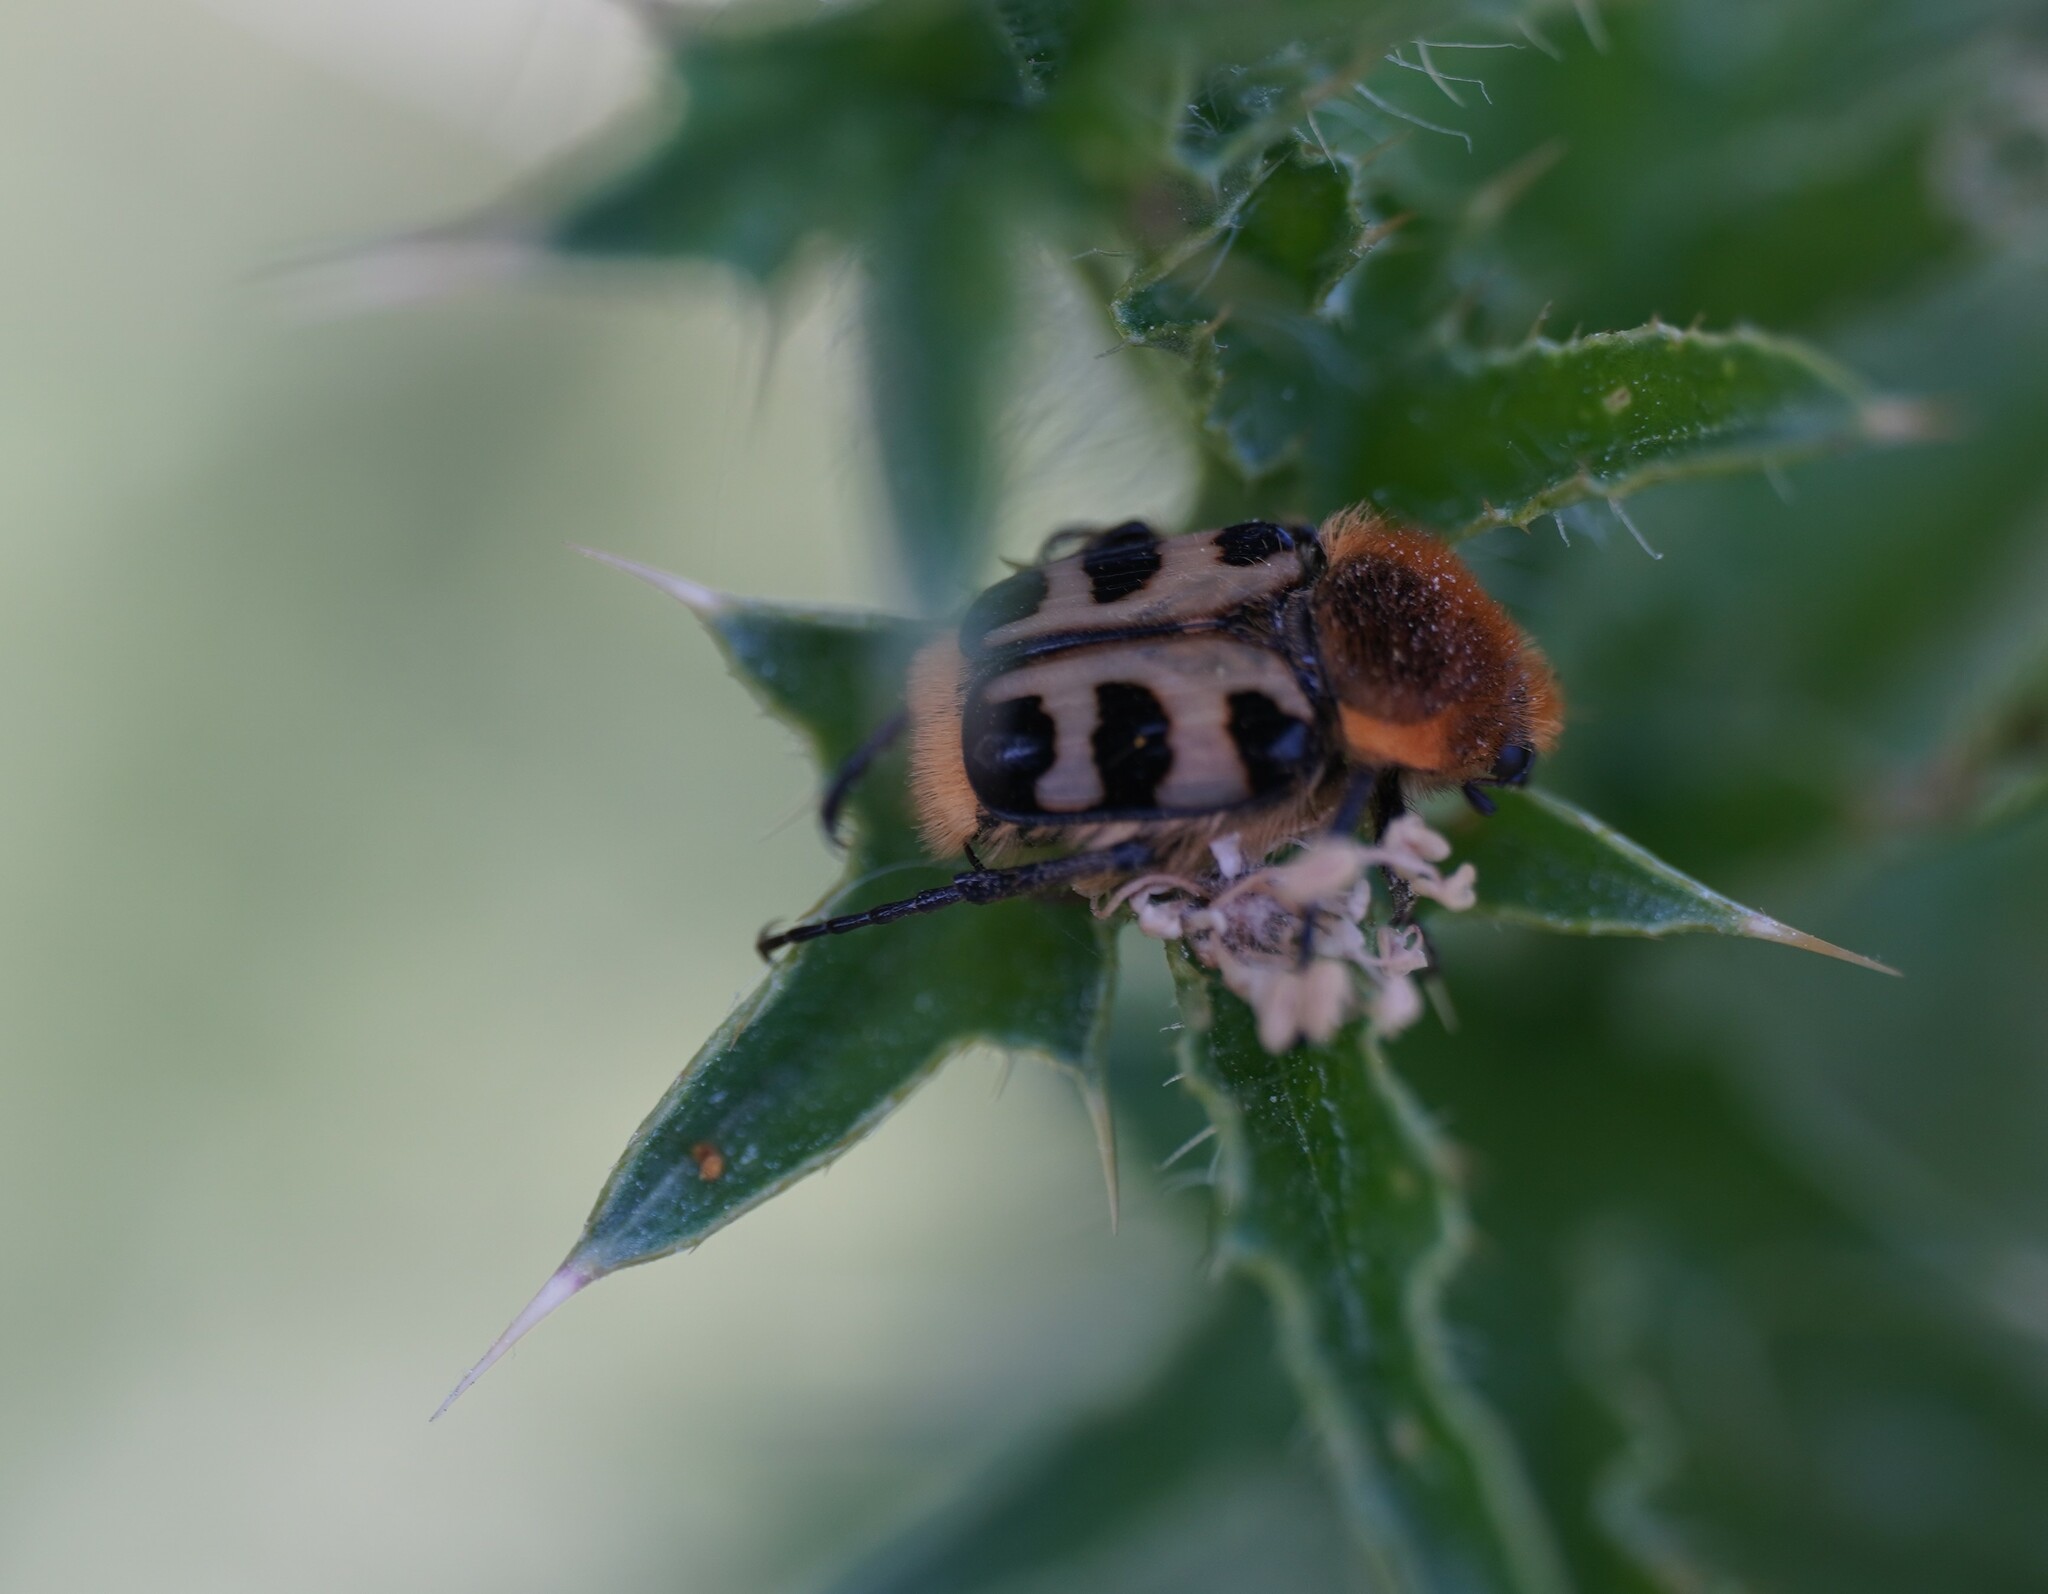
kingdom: Animalia
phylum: Arthropoda
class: Insecta
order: Coleoptera
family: Scarabaeidae
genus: Trichius
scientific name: Trichius gallicus
